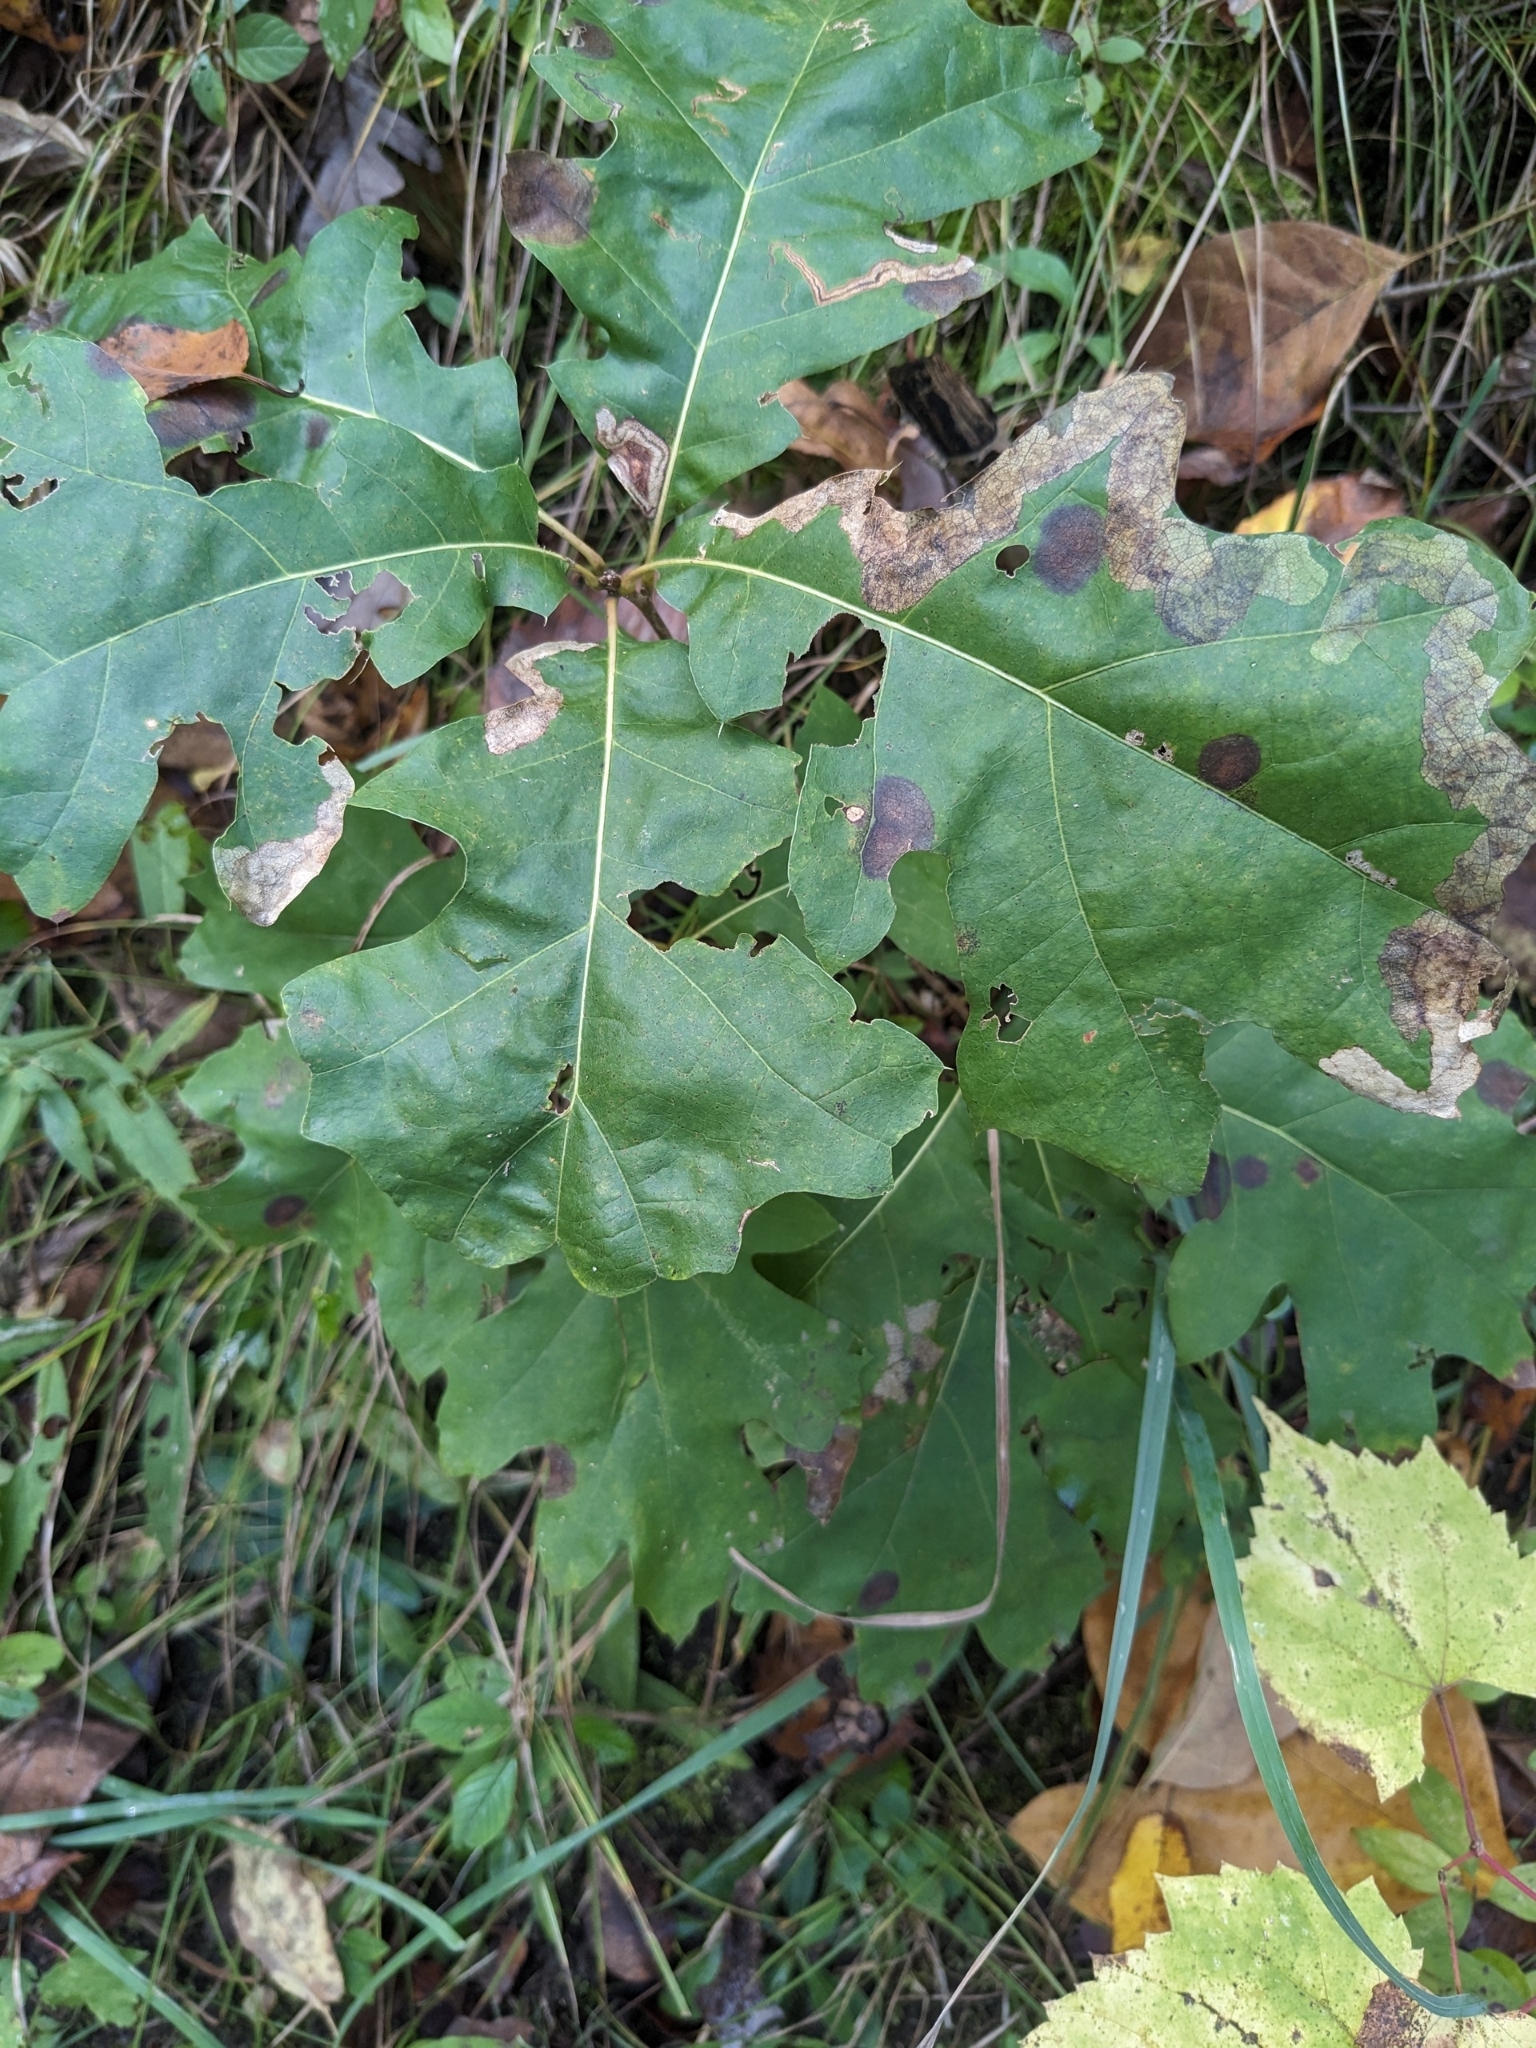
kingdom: Plantae
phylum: Tracheophyta
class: Magnoliopsida
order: Fagales
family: Fagaceae
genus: Quercus
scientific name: Quercus velutina
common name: Black oak
